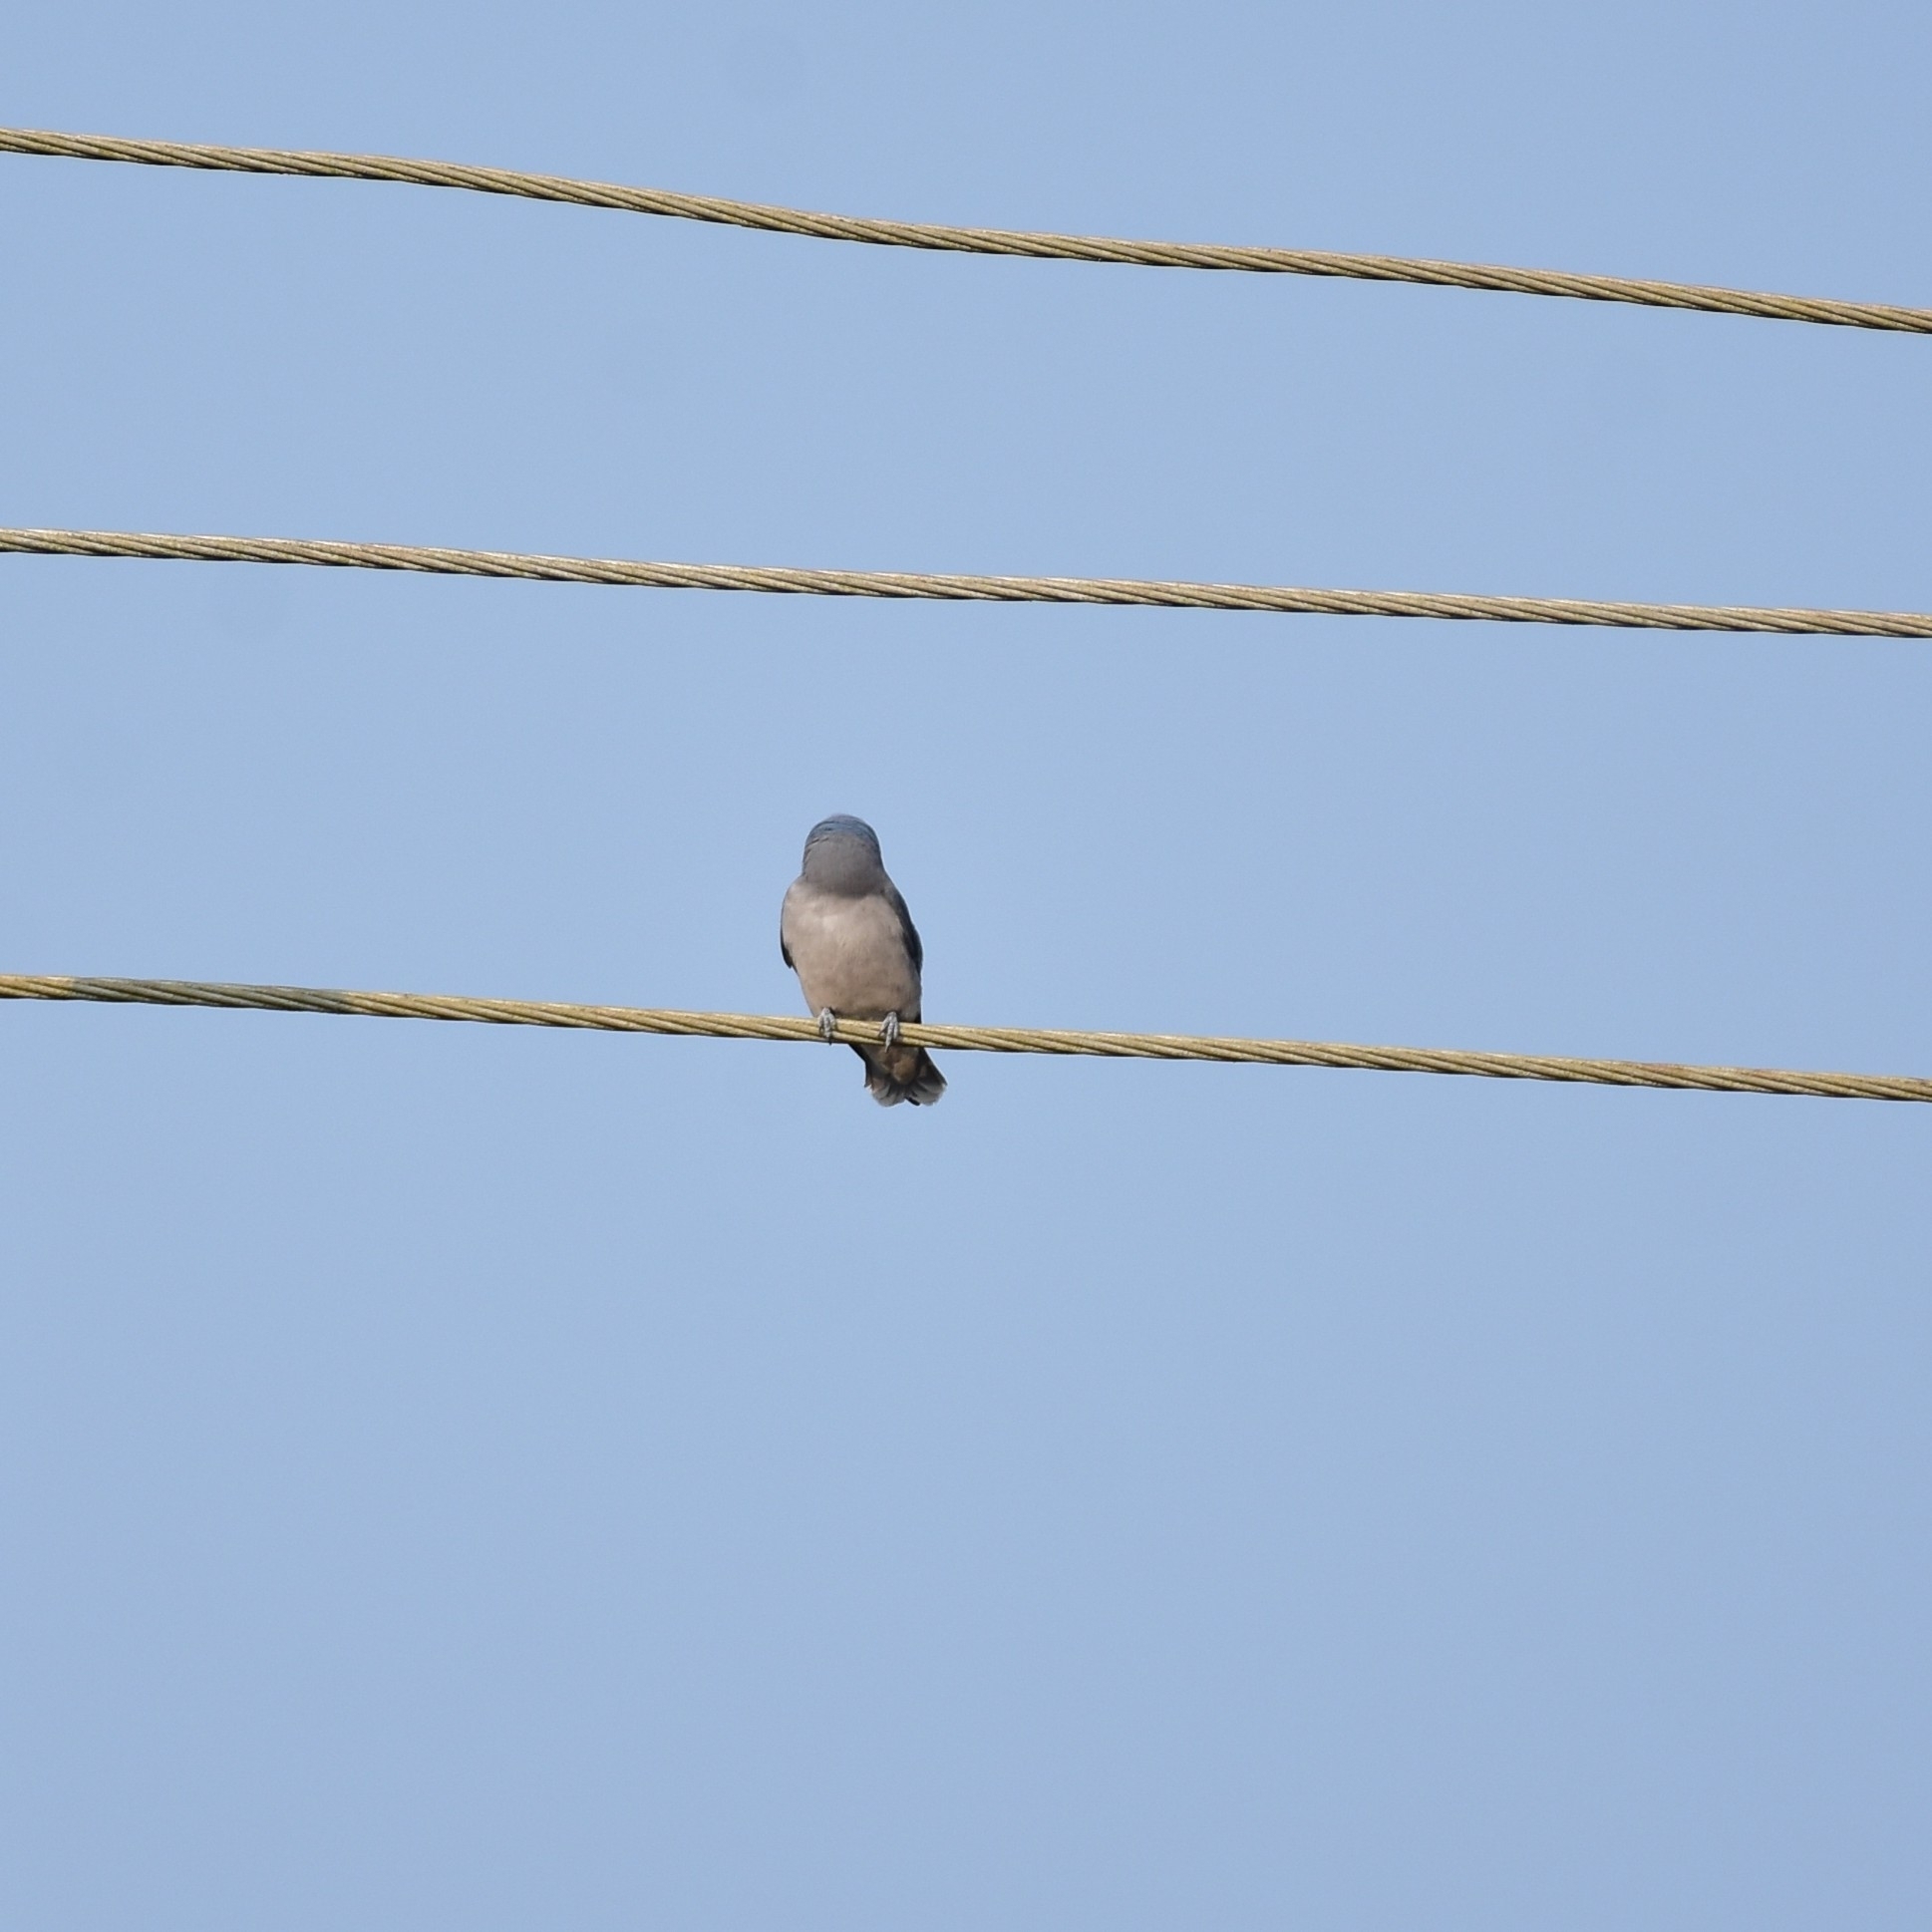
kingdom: Animalia
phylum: Chordata
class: Aves
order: Passeriformes
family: Artamidae
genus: Artamus
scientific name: Artamus fuscus
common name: Ashy woodswallow
